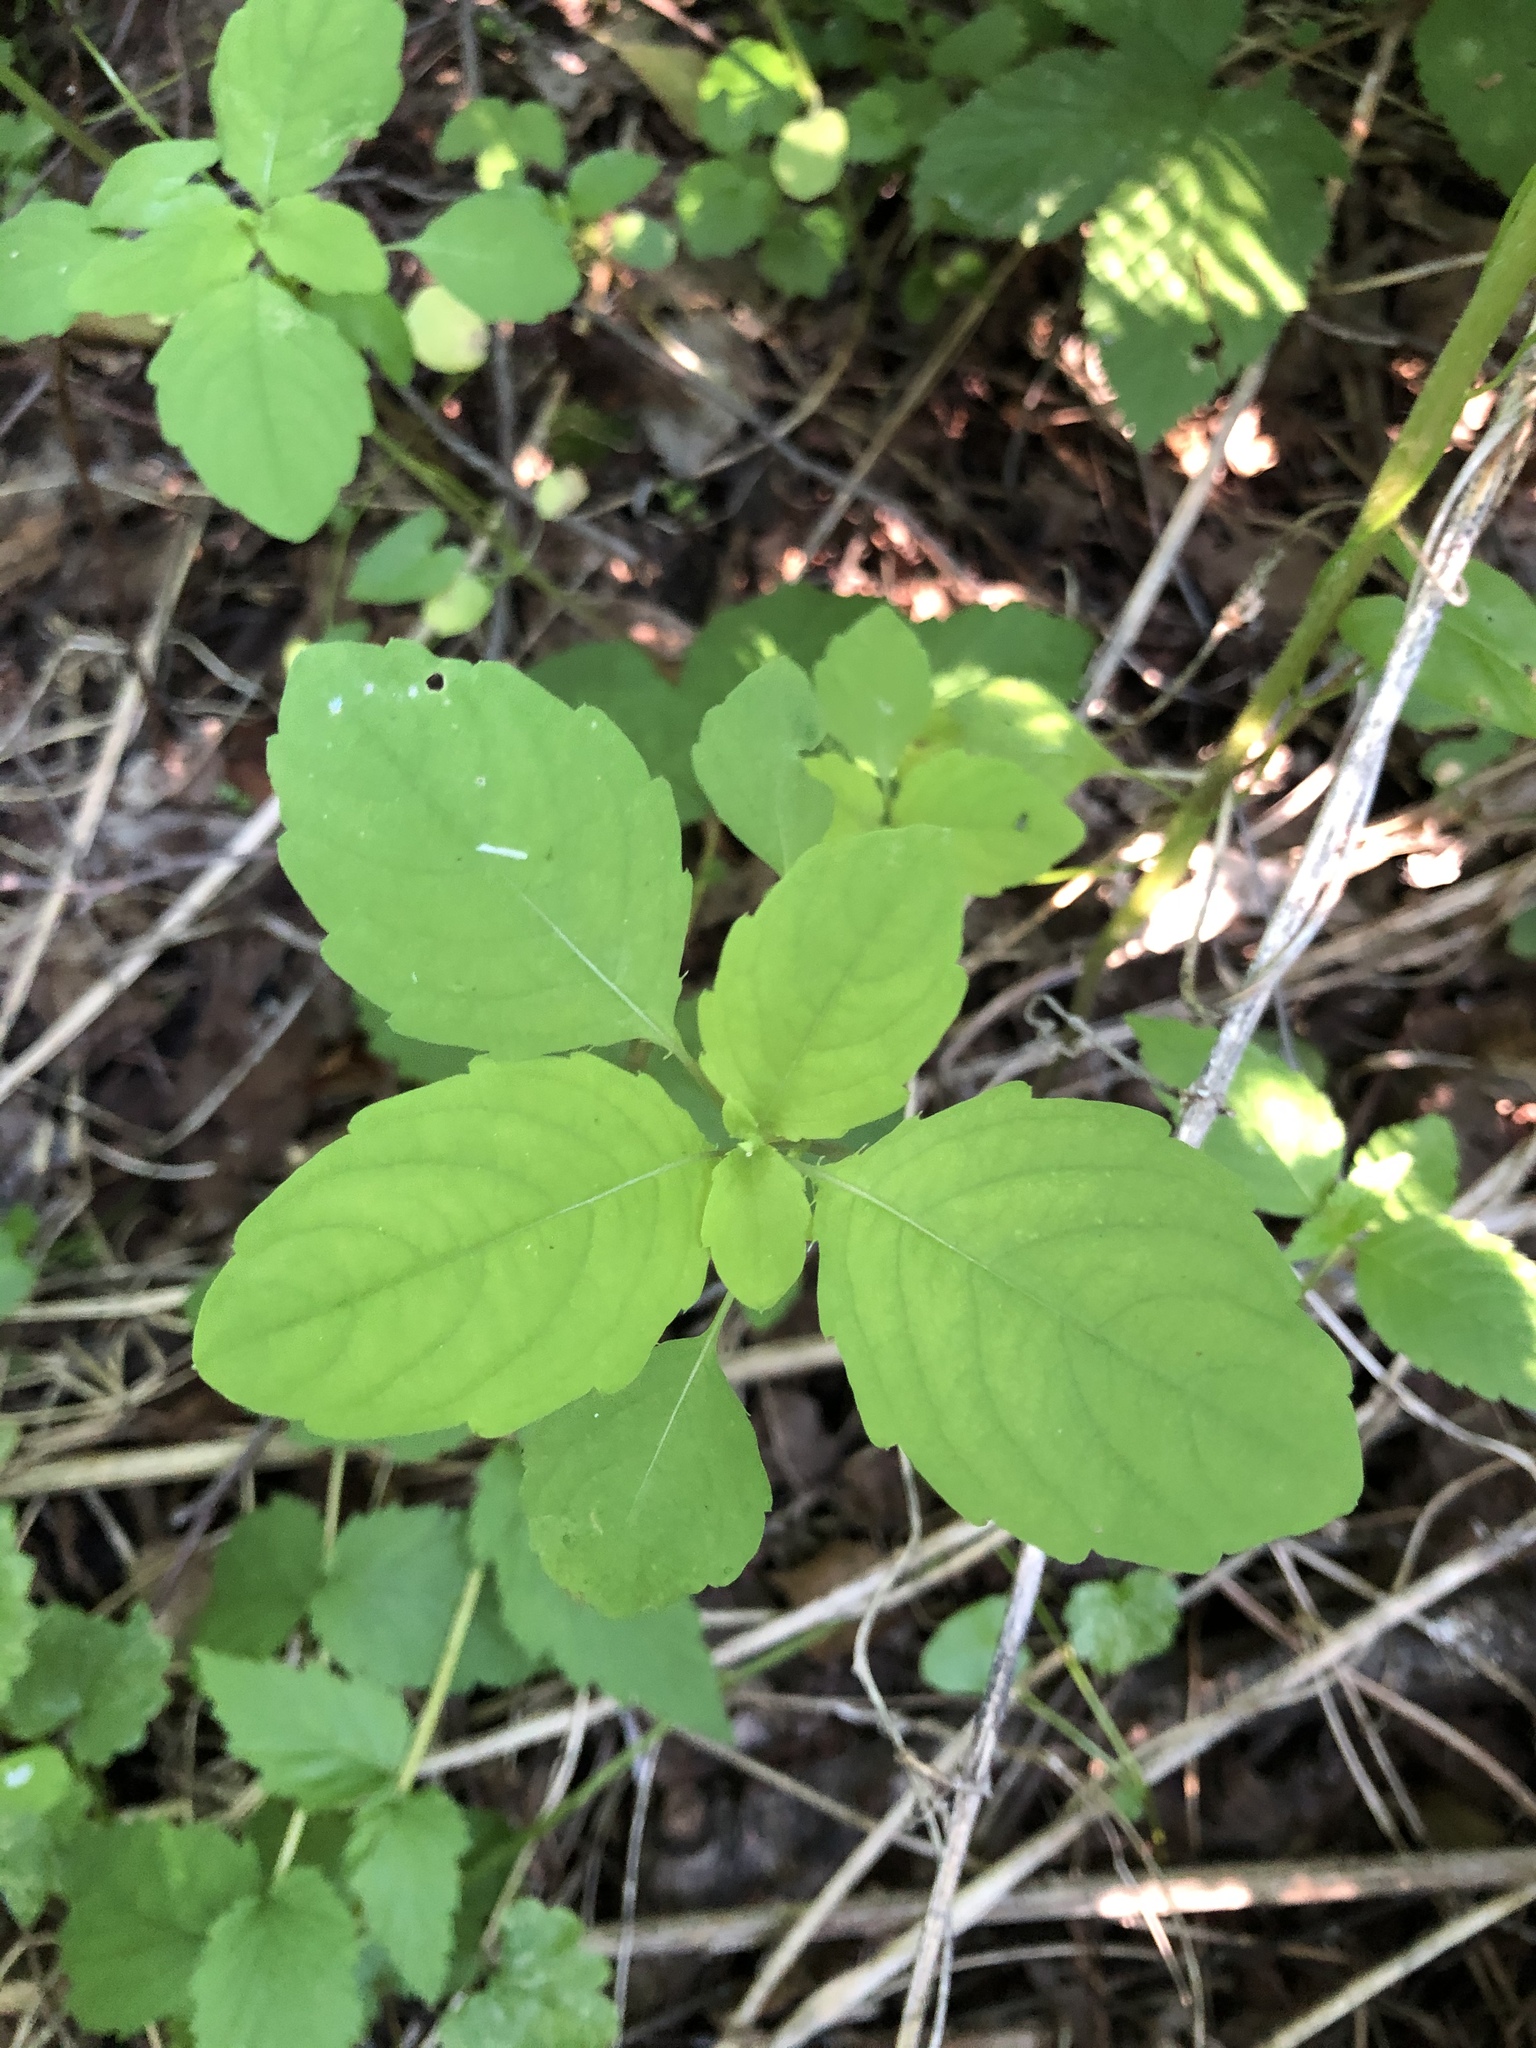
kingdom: Plantae
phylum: Tracheophyta
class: Magnoliopsida
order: Ericales
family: Balsaminaceae
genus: Impatiens
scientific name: Impatiens noli-tangere
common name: Touch-me-not balsam
